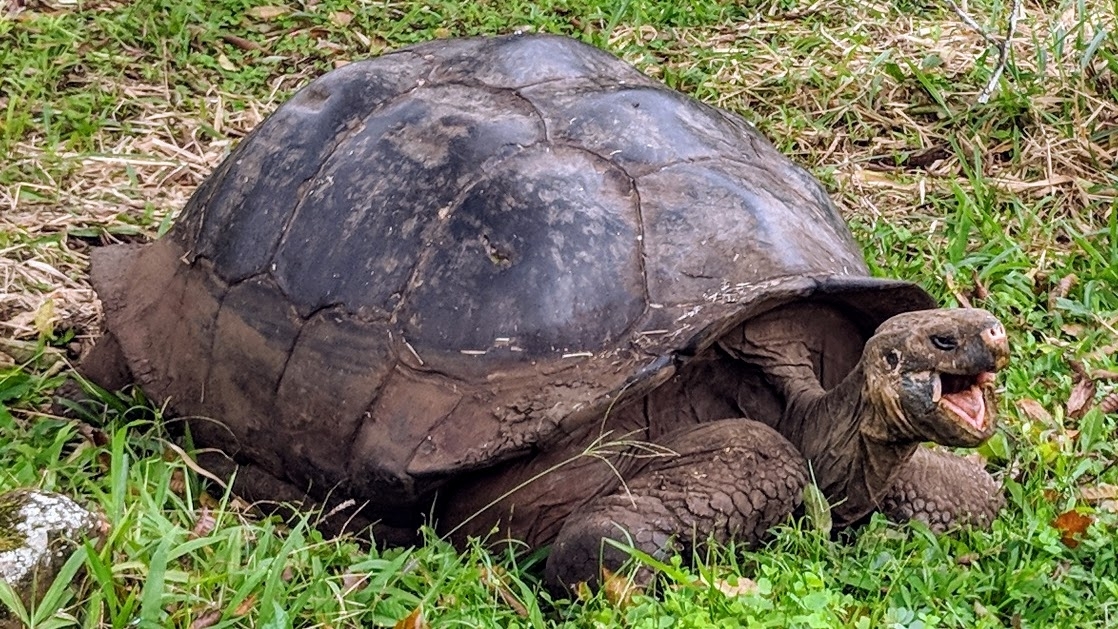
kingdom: Animalia
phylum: Chordata
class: Testudines
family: Testudinidae
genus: Chelonoidis
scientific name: Chelonoidis porteri
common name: Indefatigable island giant tortoise
